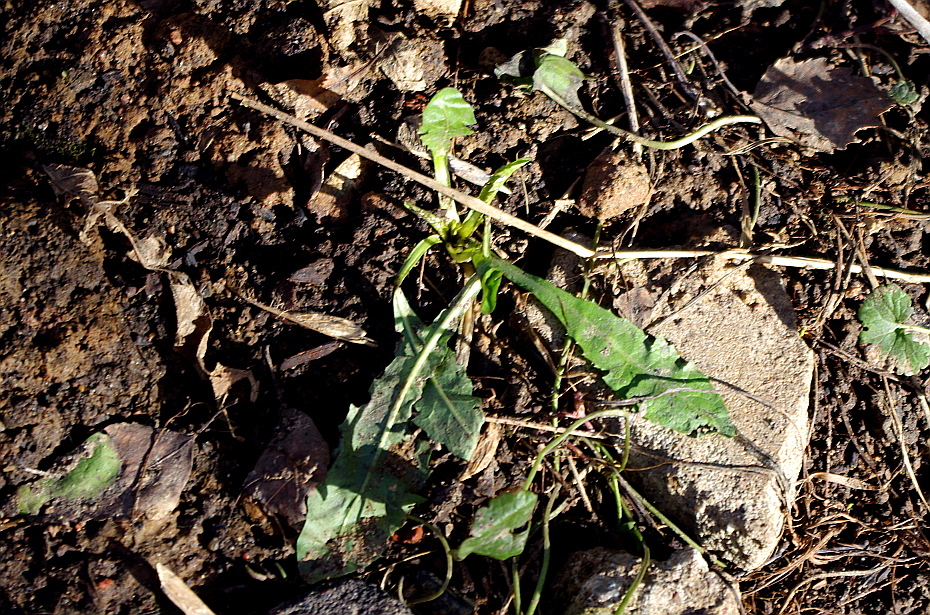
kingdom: Plantae
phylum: Tracheophyta
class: Magnoliopsida
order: Asterales
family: Asteraceae
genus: Taraxacum
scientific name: Taraxacum officinale
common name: Common dandelion
